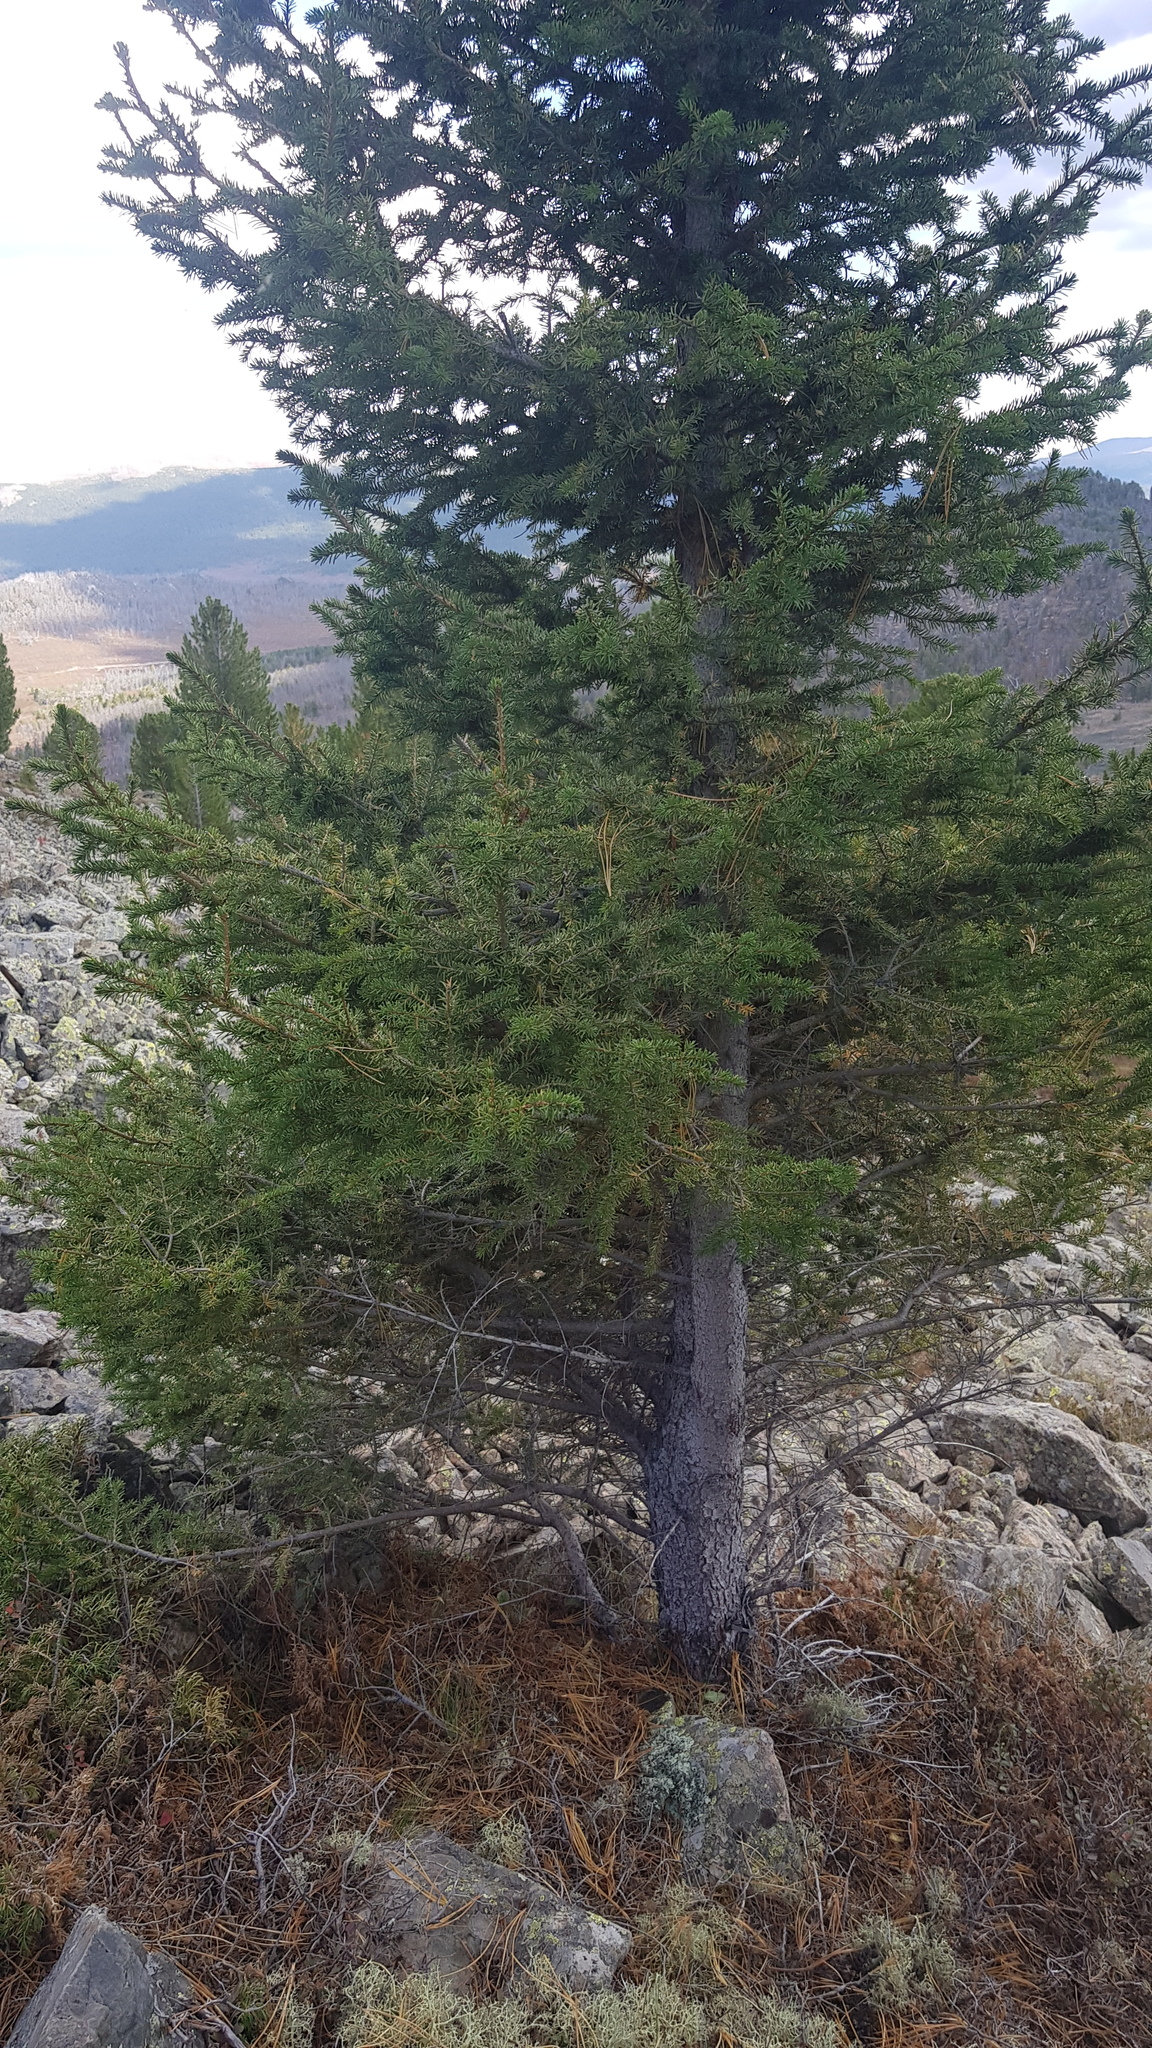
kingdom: Plantae
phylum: Tracheophyta
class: Pinopsida
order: Pinales
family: Pinaceae
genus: Pinus
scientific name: Pinus sibirica
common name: Siberian pine
